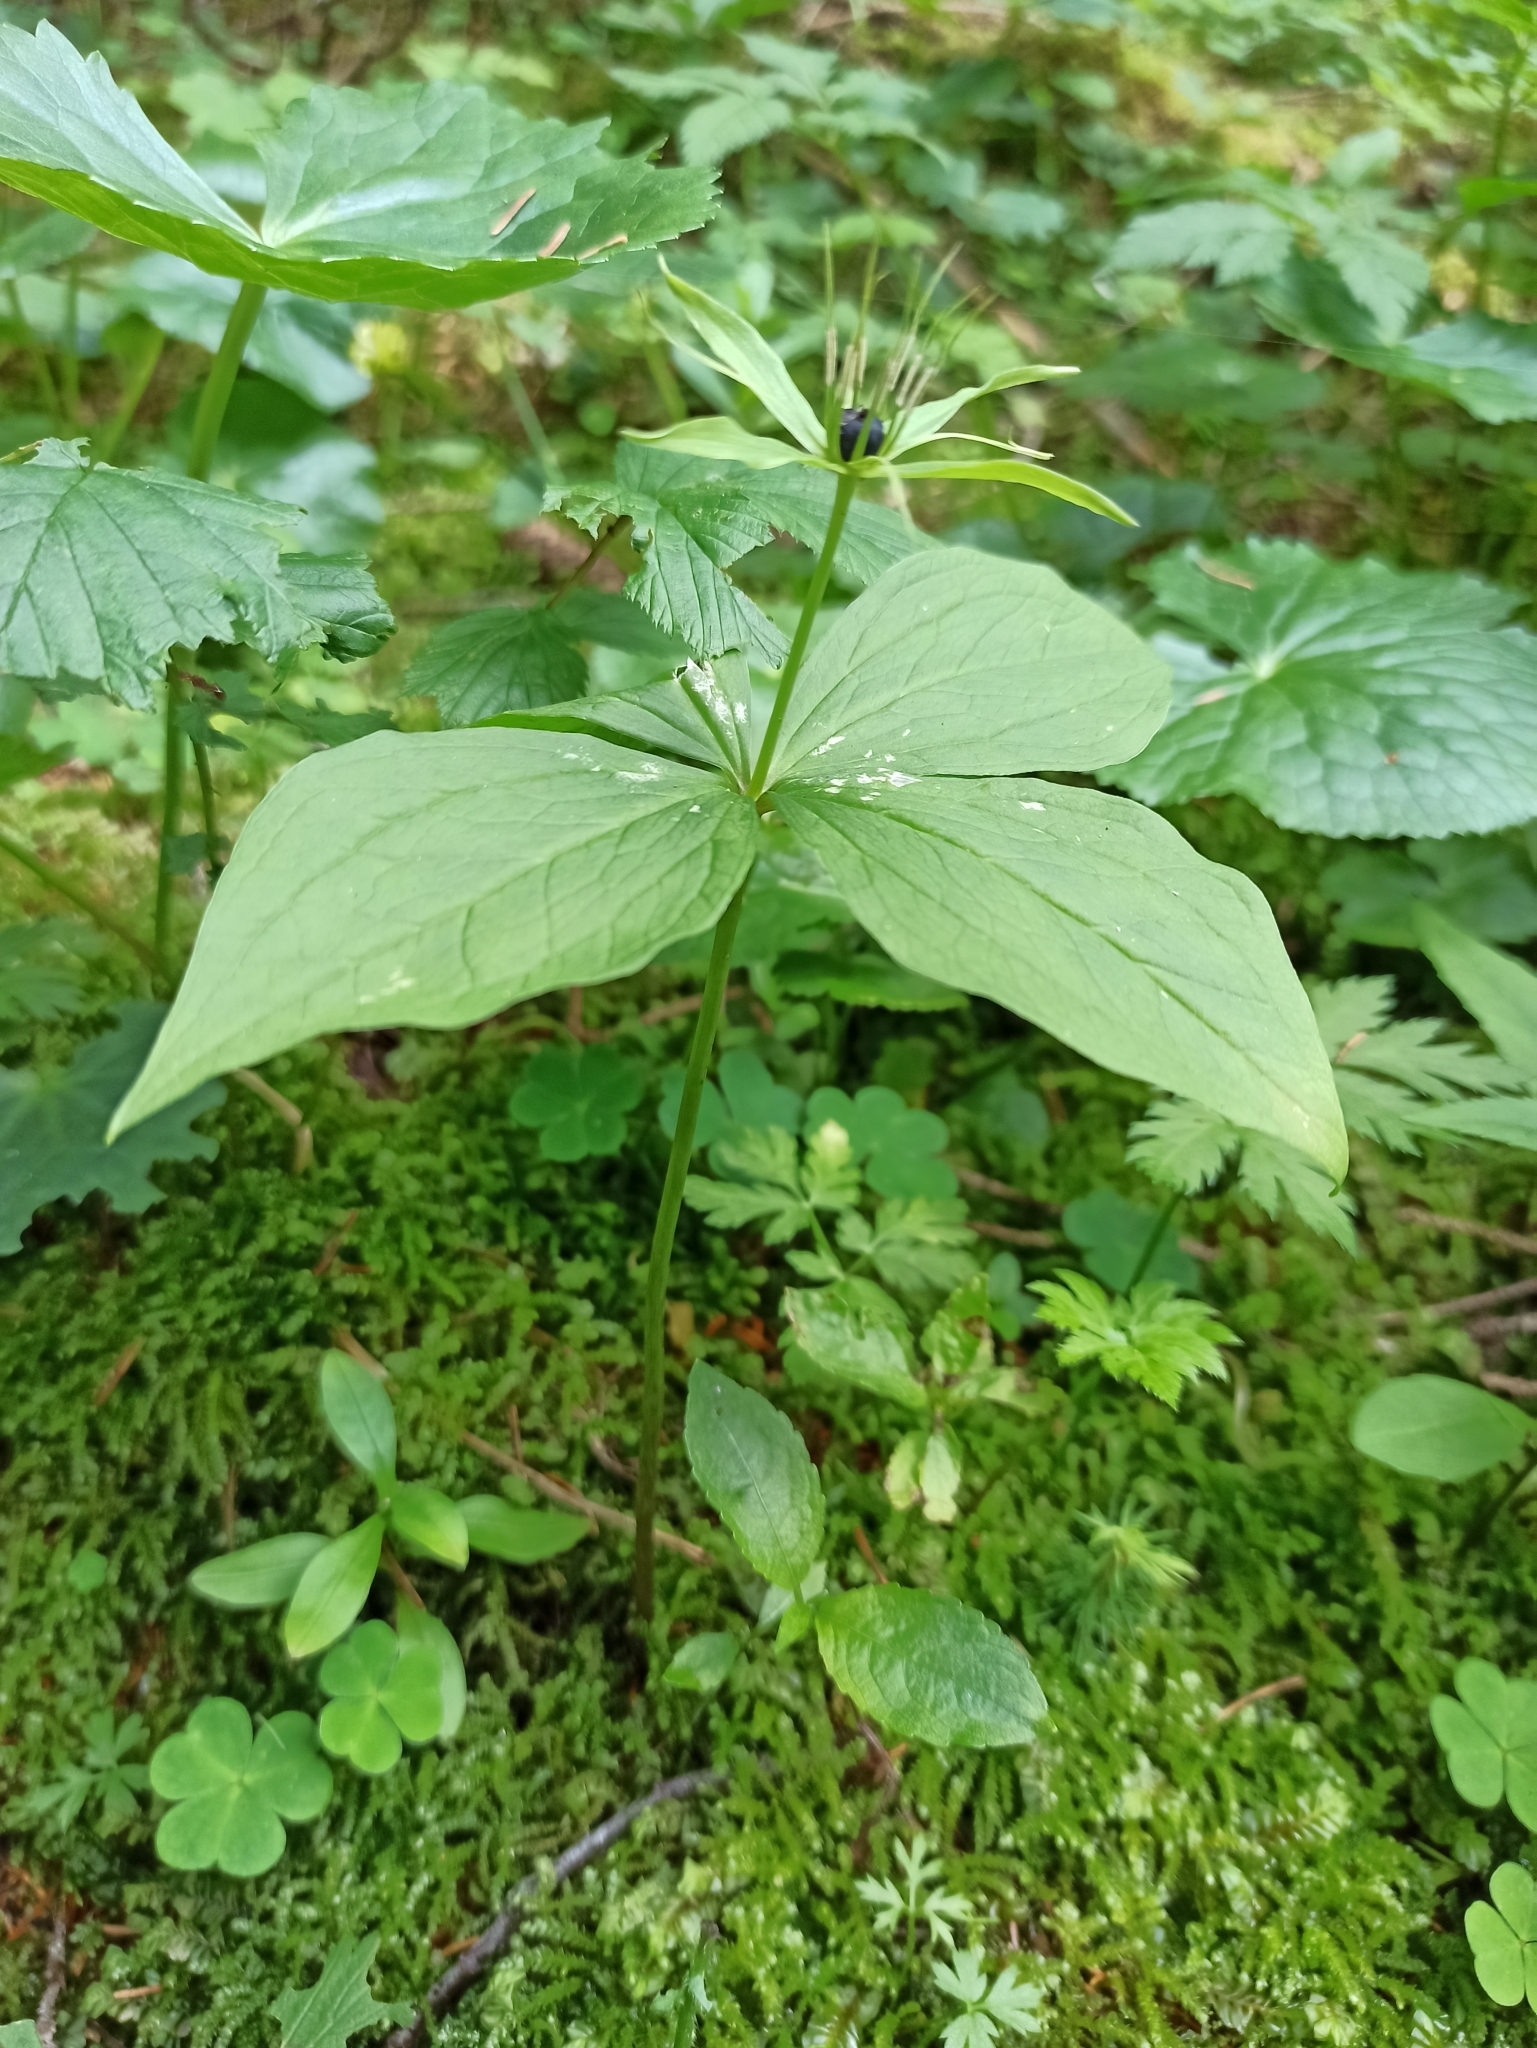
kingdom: Plantae
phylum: Tracheophyta
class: Liliopsida
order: Liliales
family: Melanthiaceae
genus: Paris
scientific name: Paris quadrifolia
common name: Herb-paris
